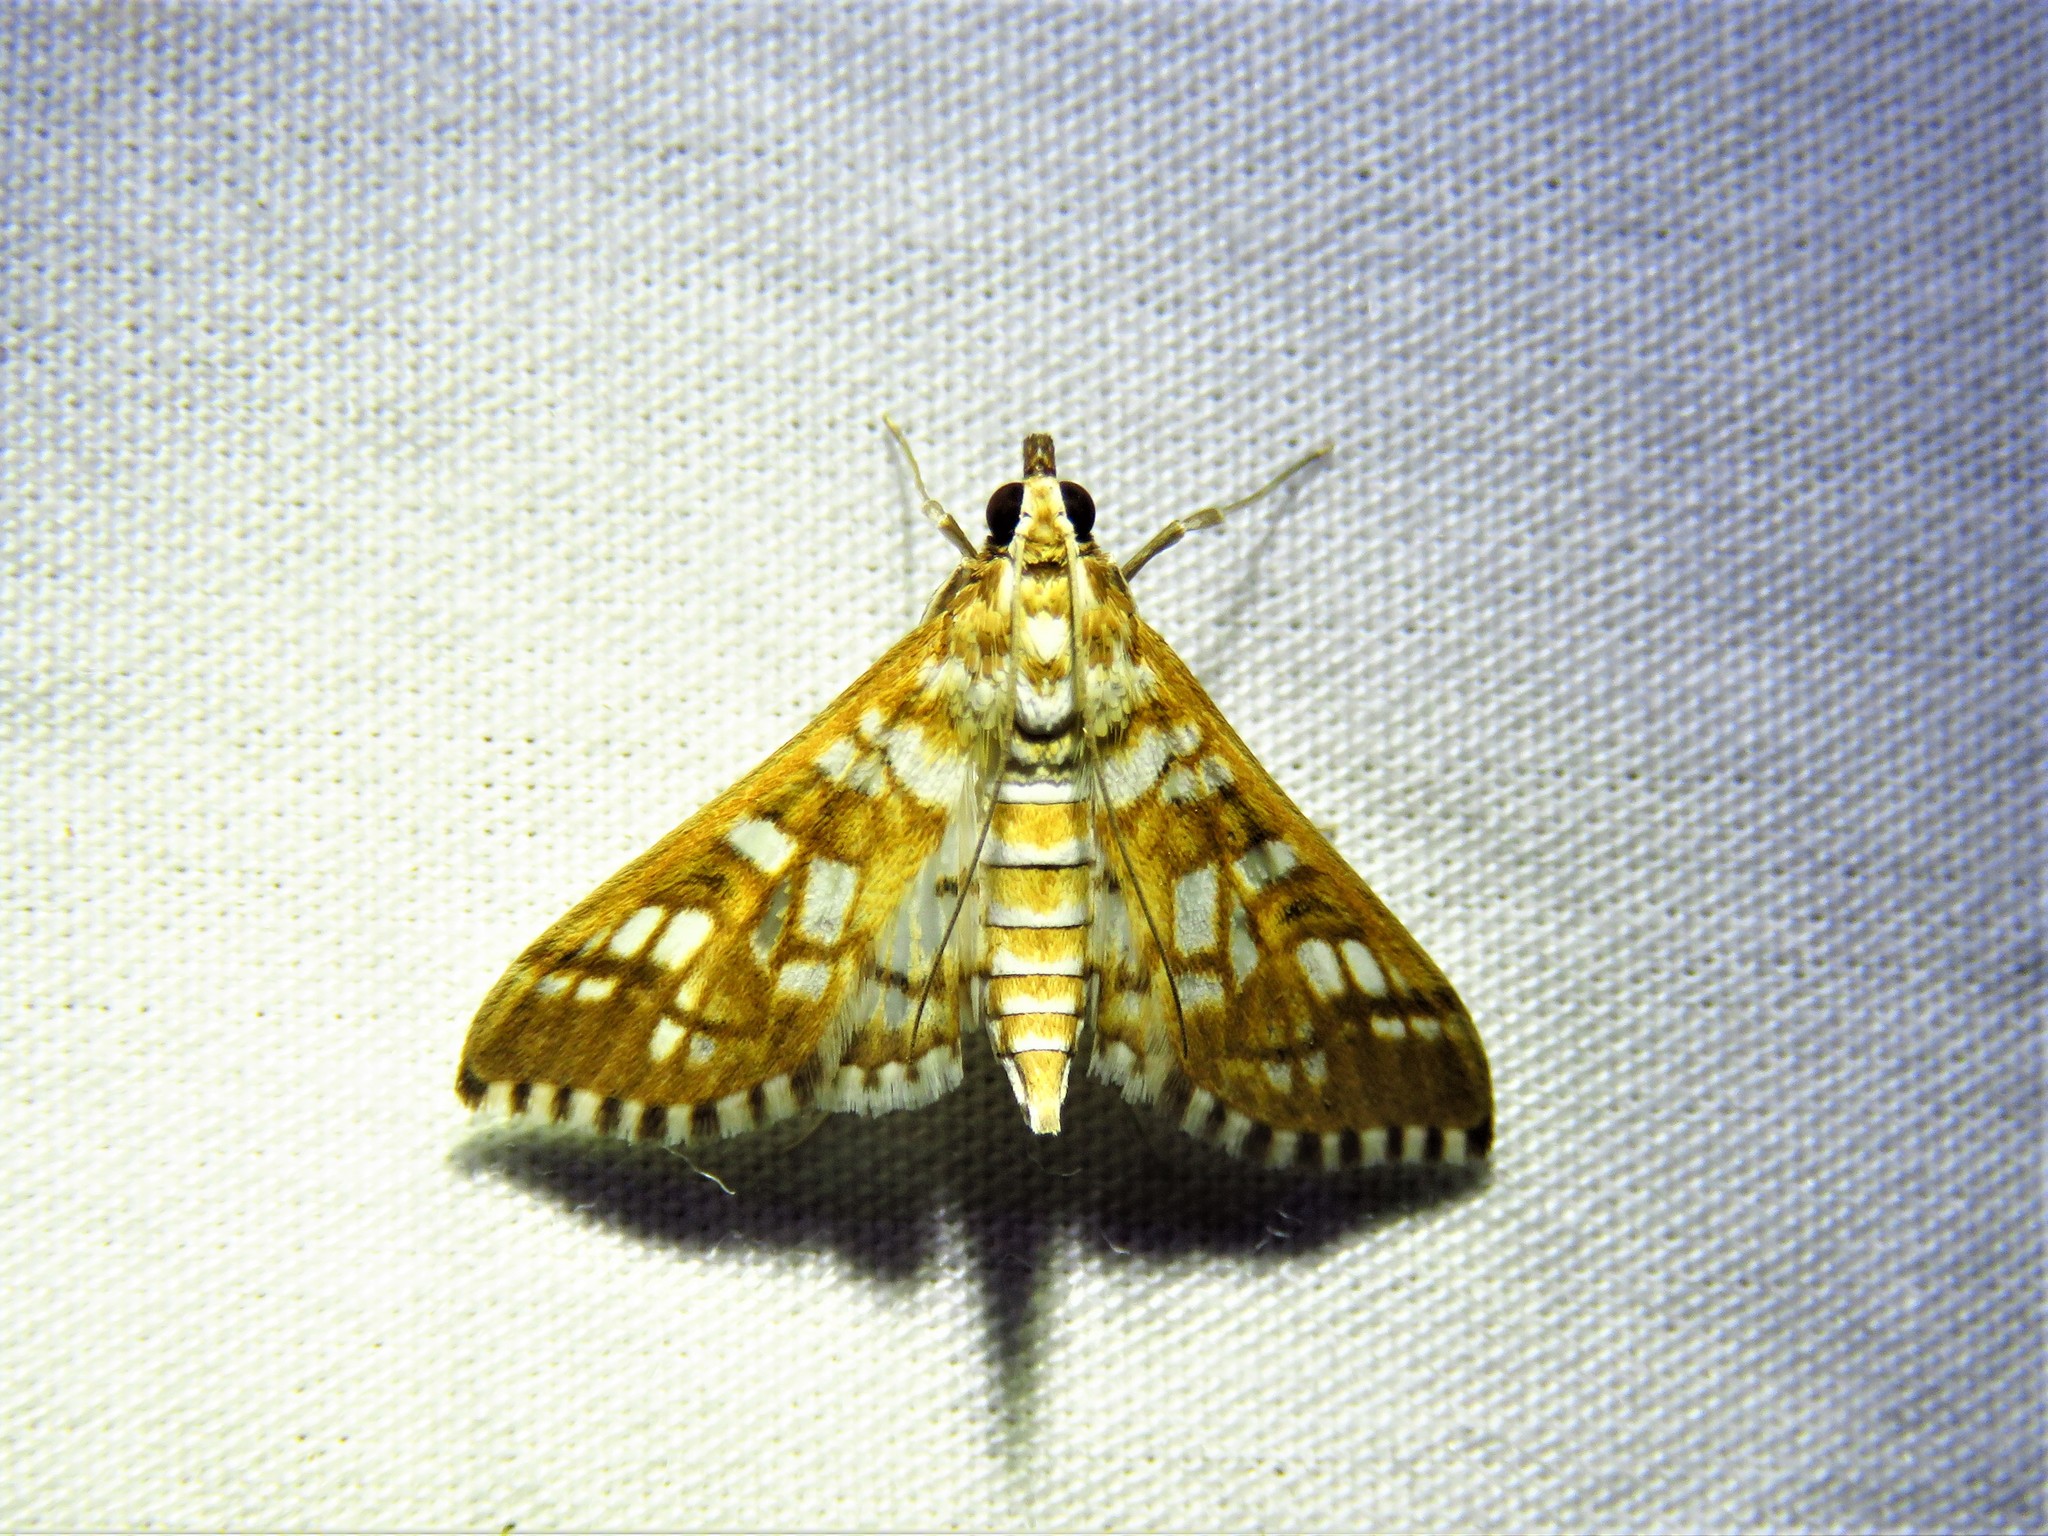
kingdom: Animalia
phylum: Arthropoda
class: Insecta
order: Lepidoptera
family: Crambidae
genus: Epipagis
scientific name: Epipagis fenestralis
